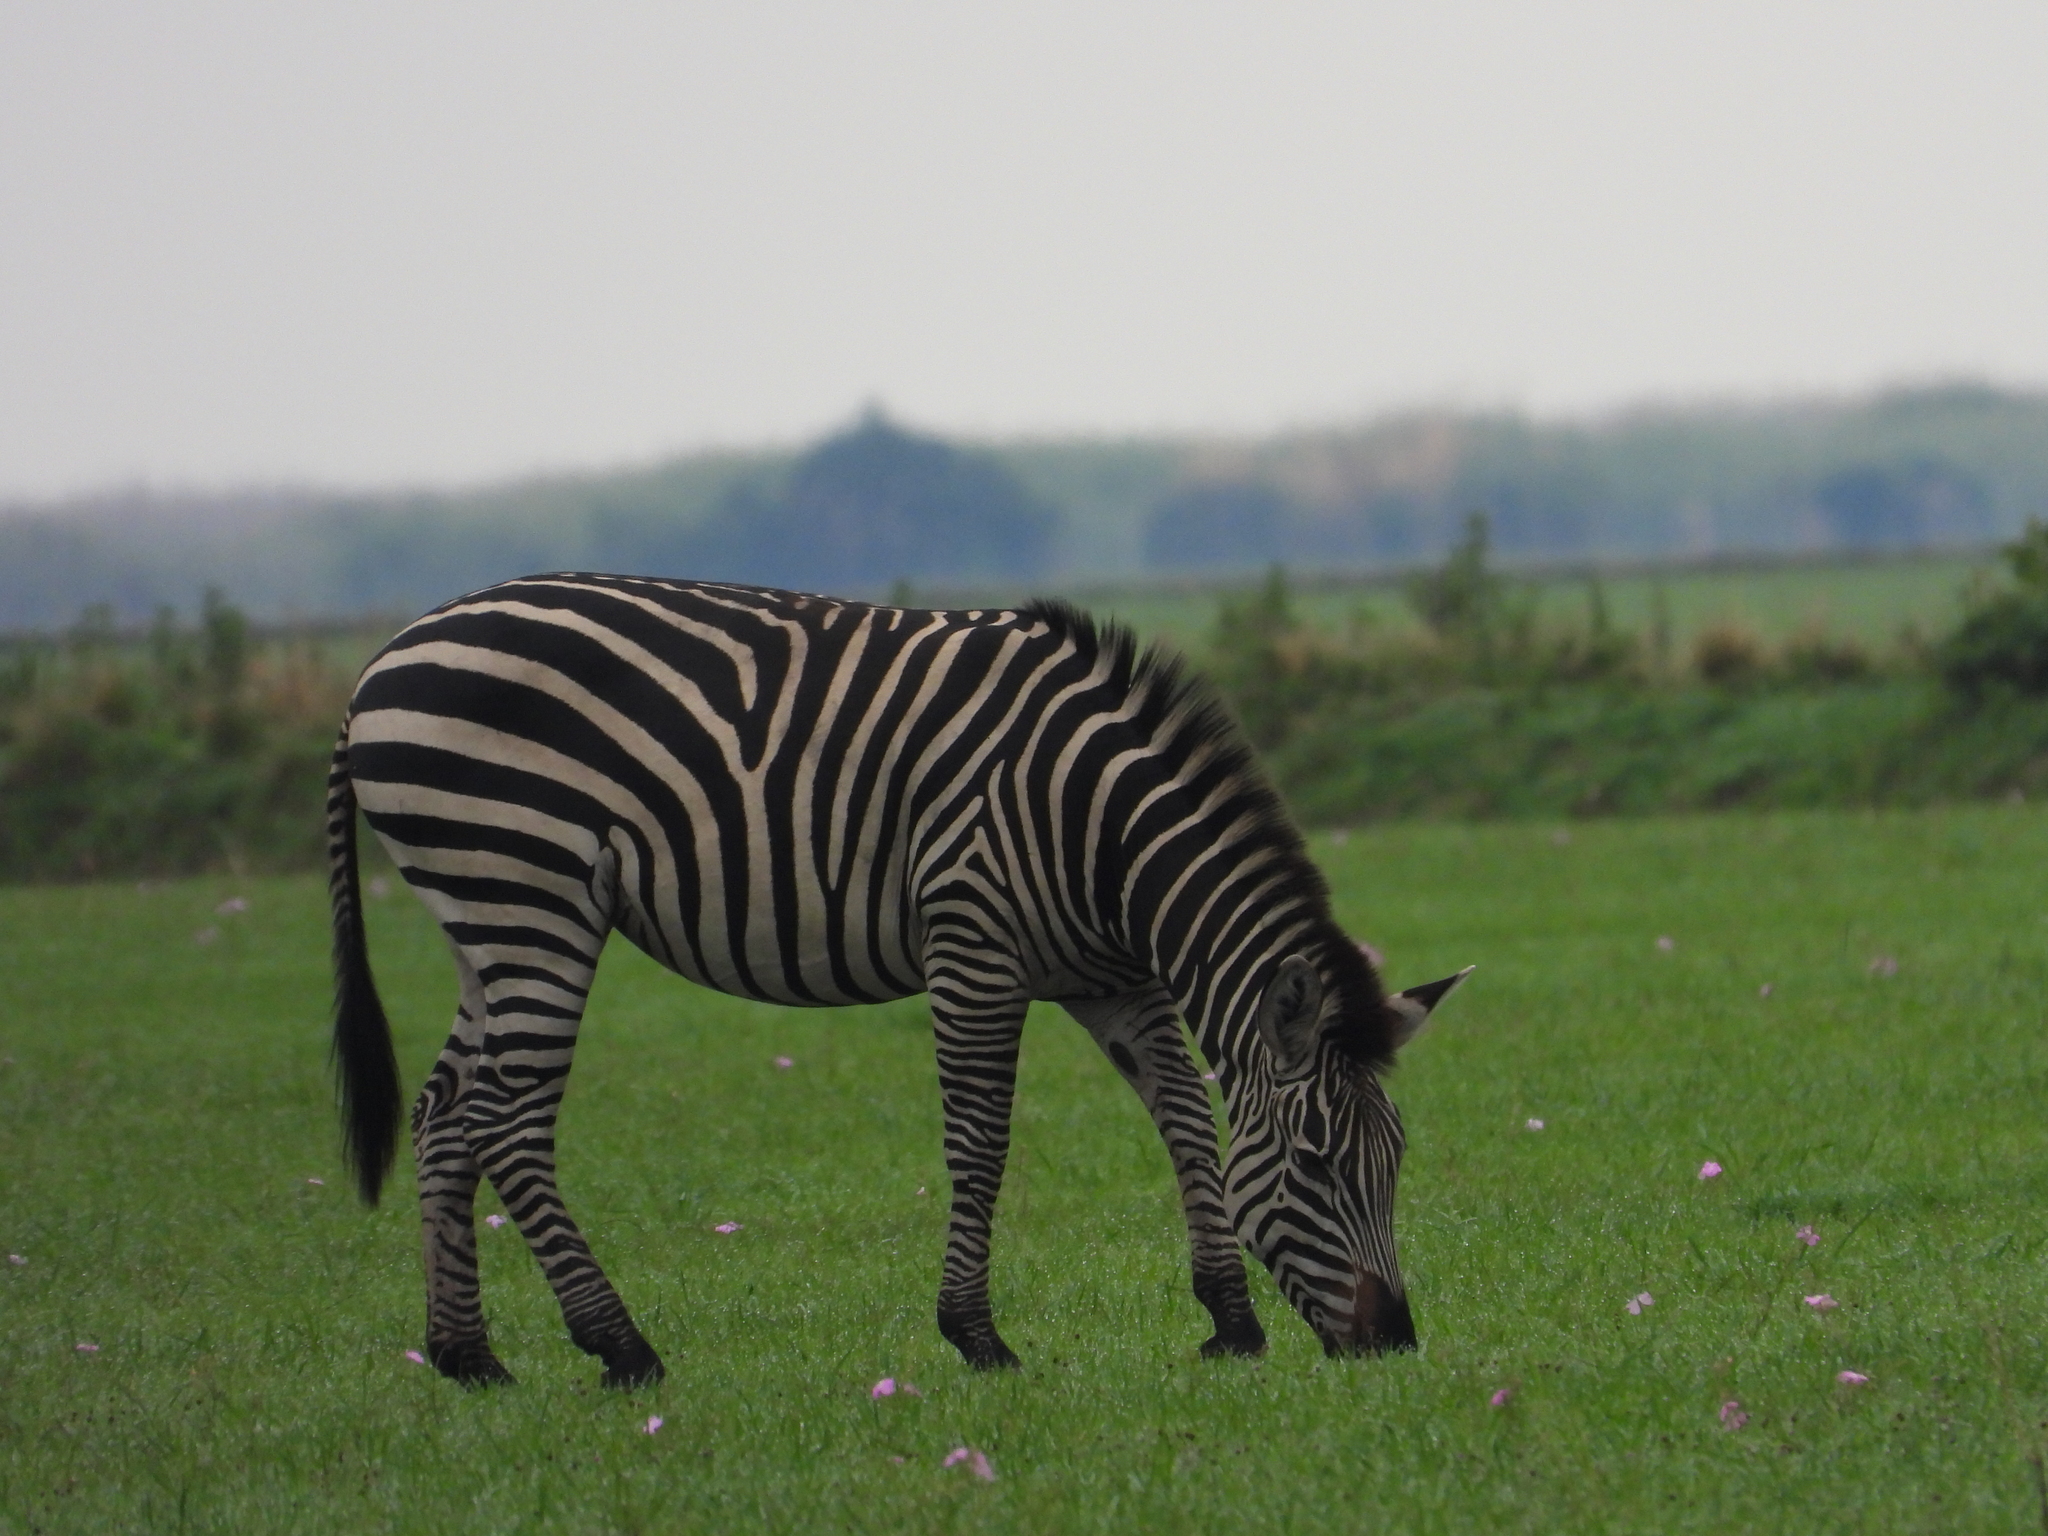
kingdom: Animalia
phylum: Chordata
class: Mammalia
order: Perissodactyla
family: Equidae
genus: Equus
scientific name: Equus quagga
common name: Plains zebra
